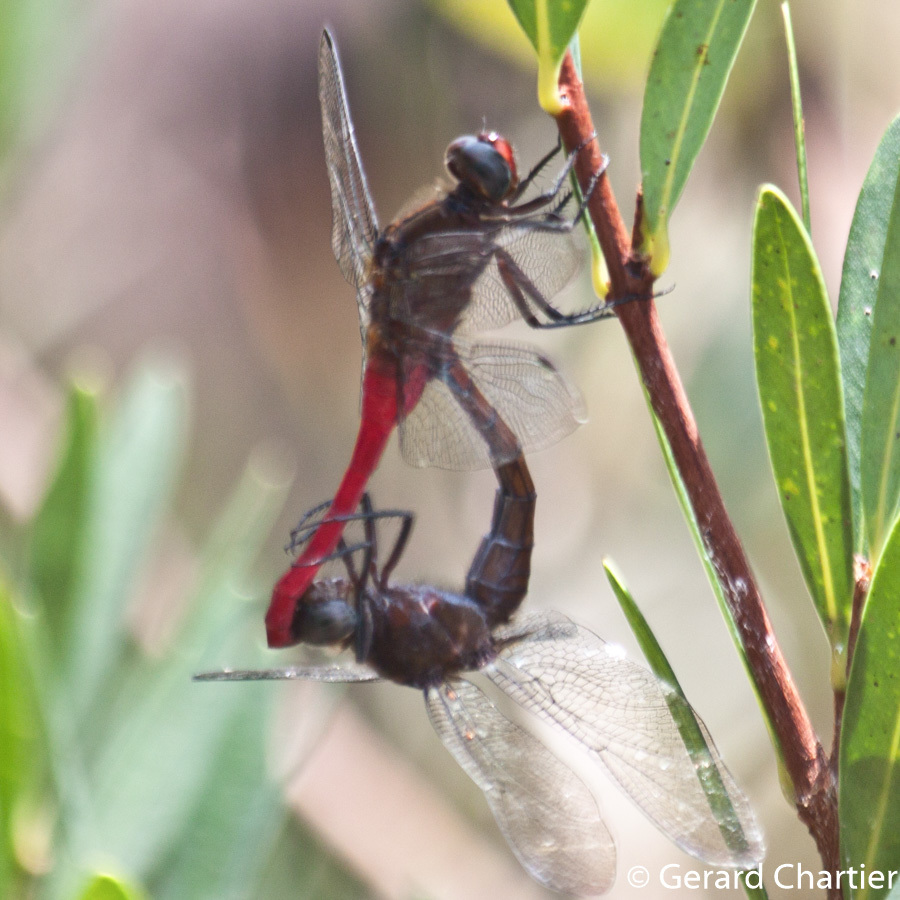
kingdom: Animalia
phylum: Arthropoda
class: Insecta
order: Odonata
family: Libellulidae
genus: Orthetrum
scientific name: Orthetrum chrysis
